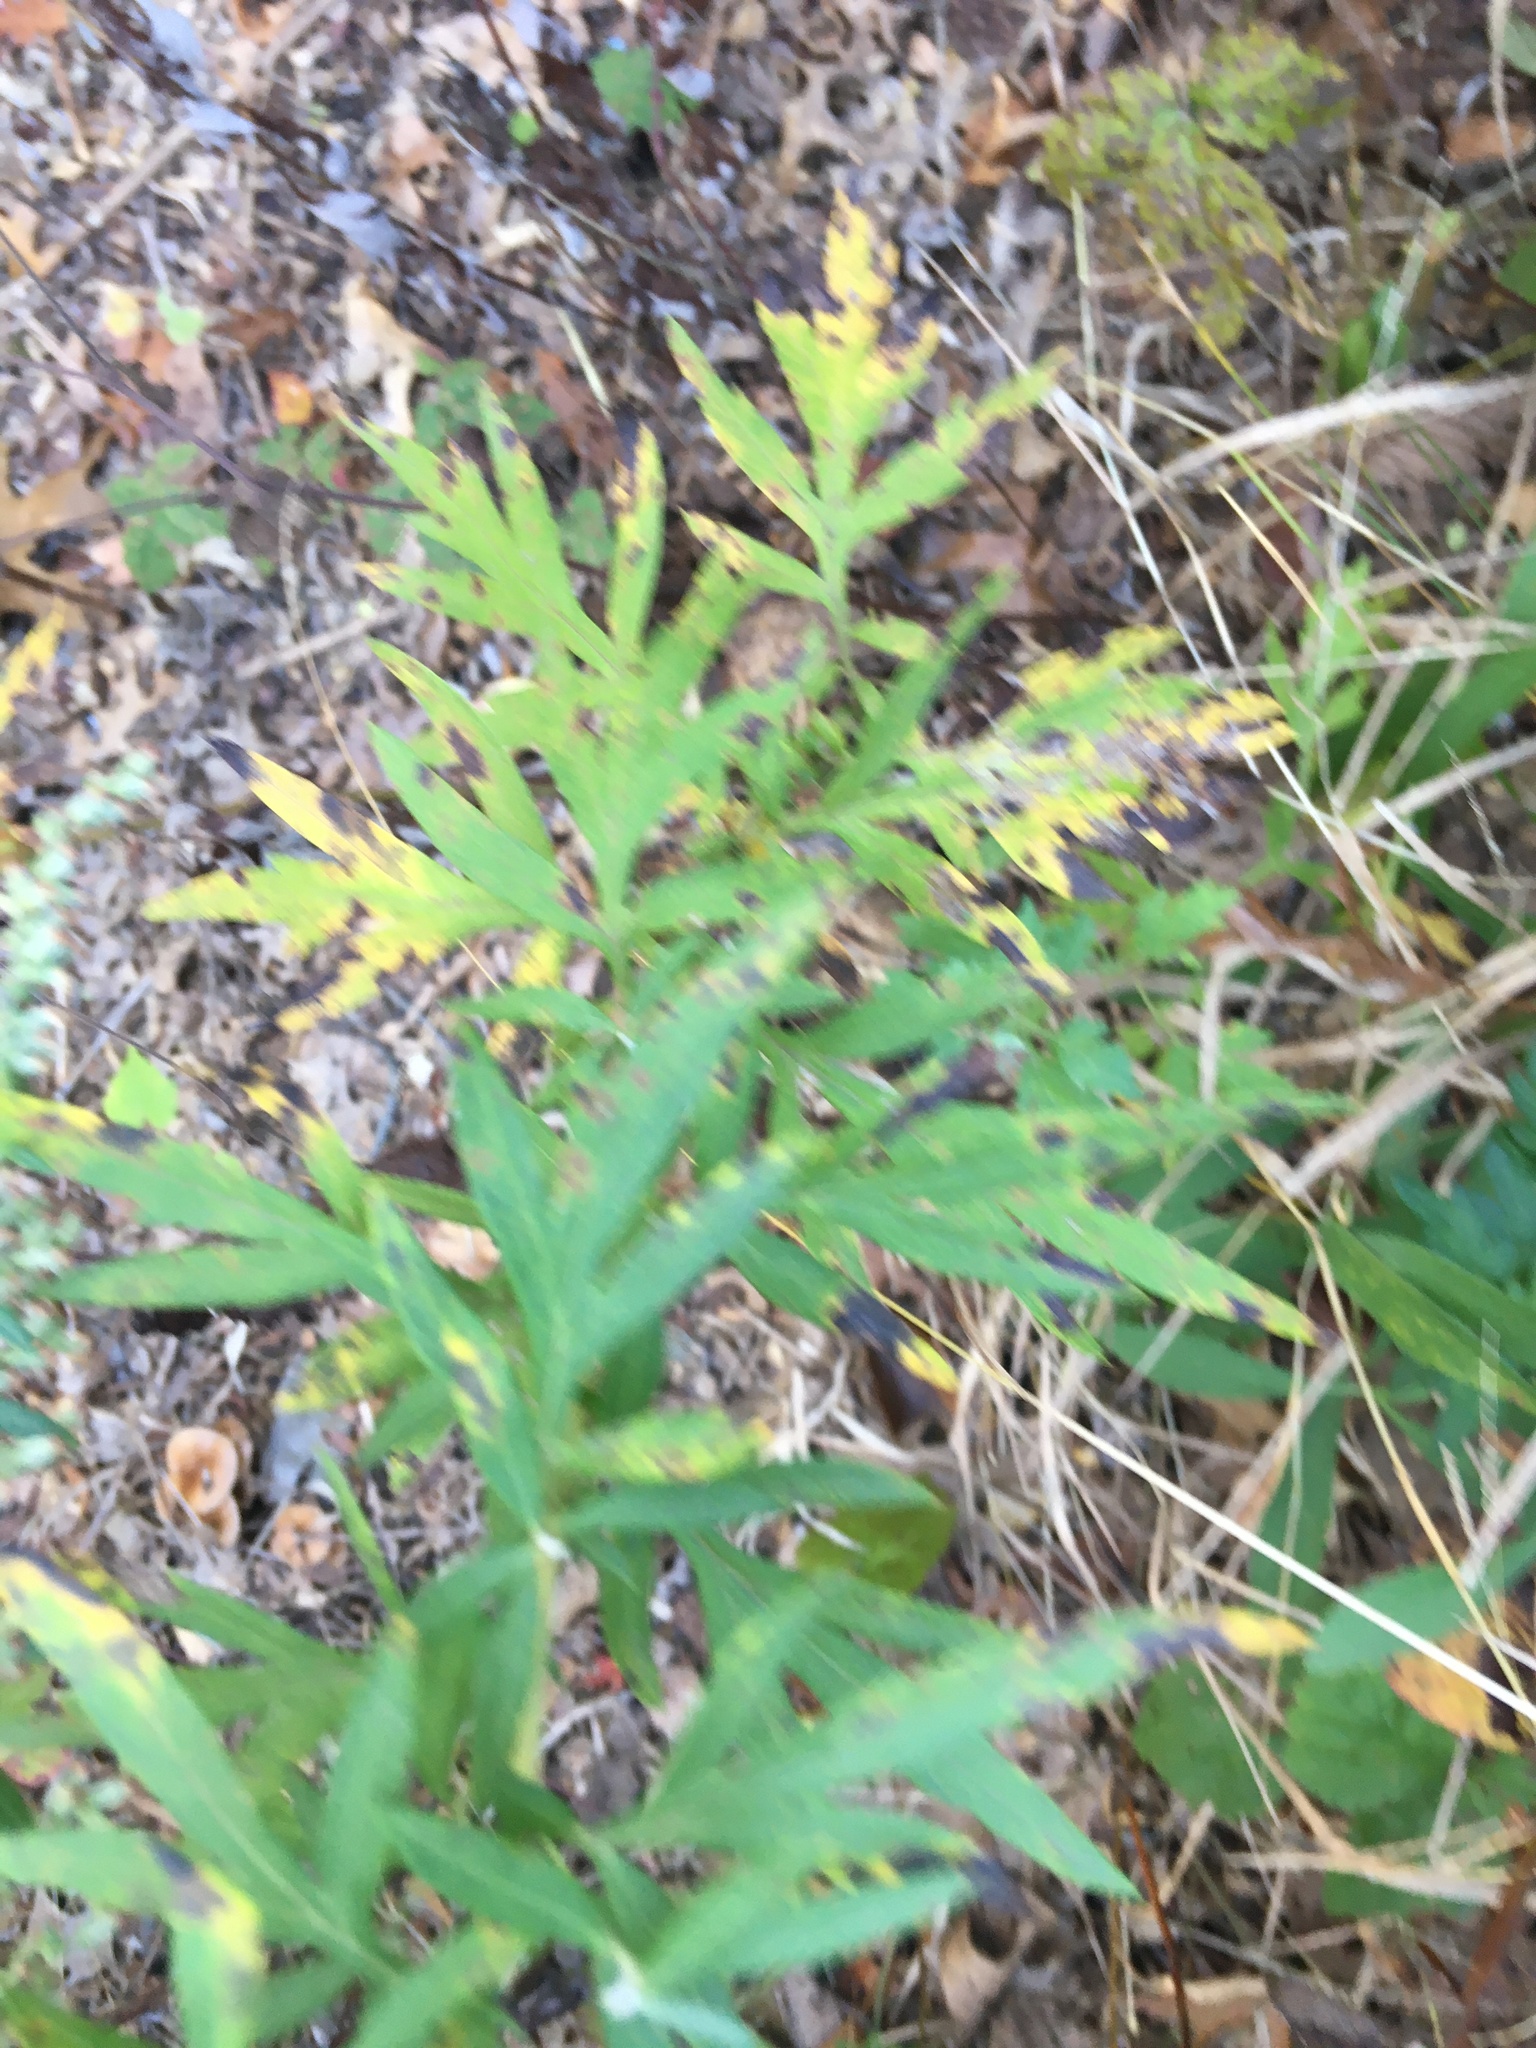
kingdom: Plantae
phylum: Tracheophyta
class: Magnoliopsida
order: Asterales
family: Asteraceae
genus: Artemisia
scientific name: Artemisia vulgaris
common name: Mugwort
